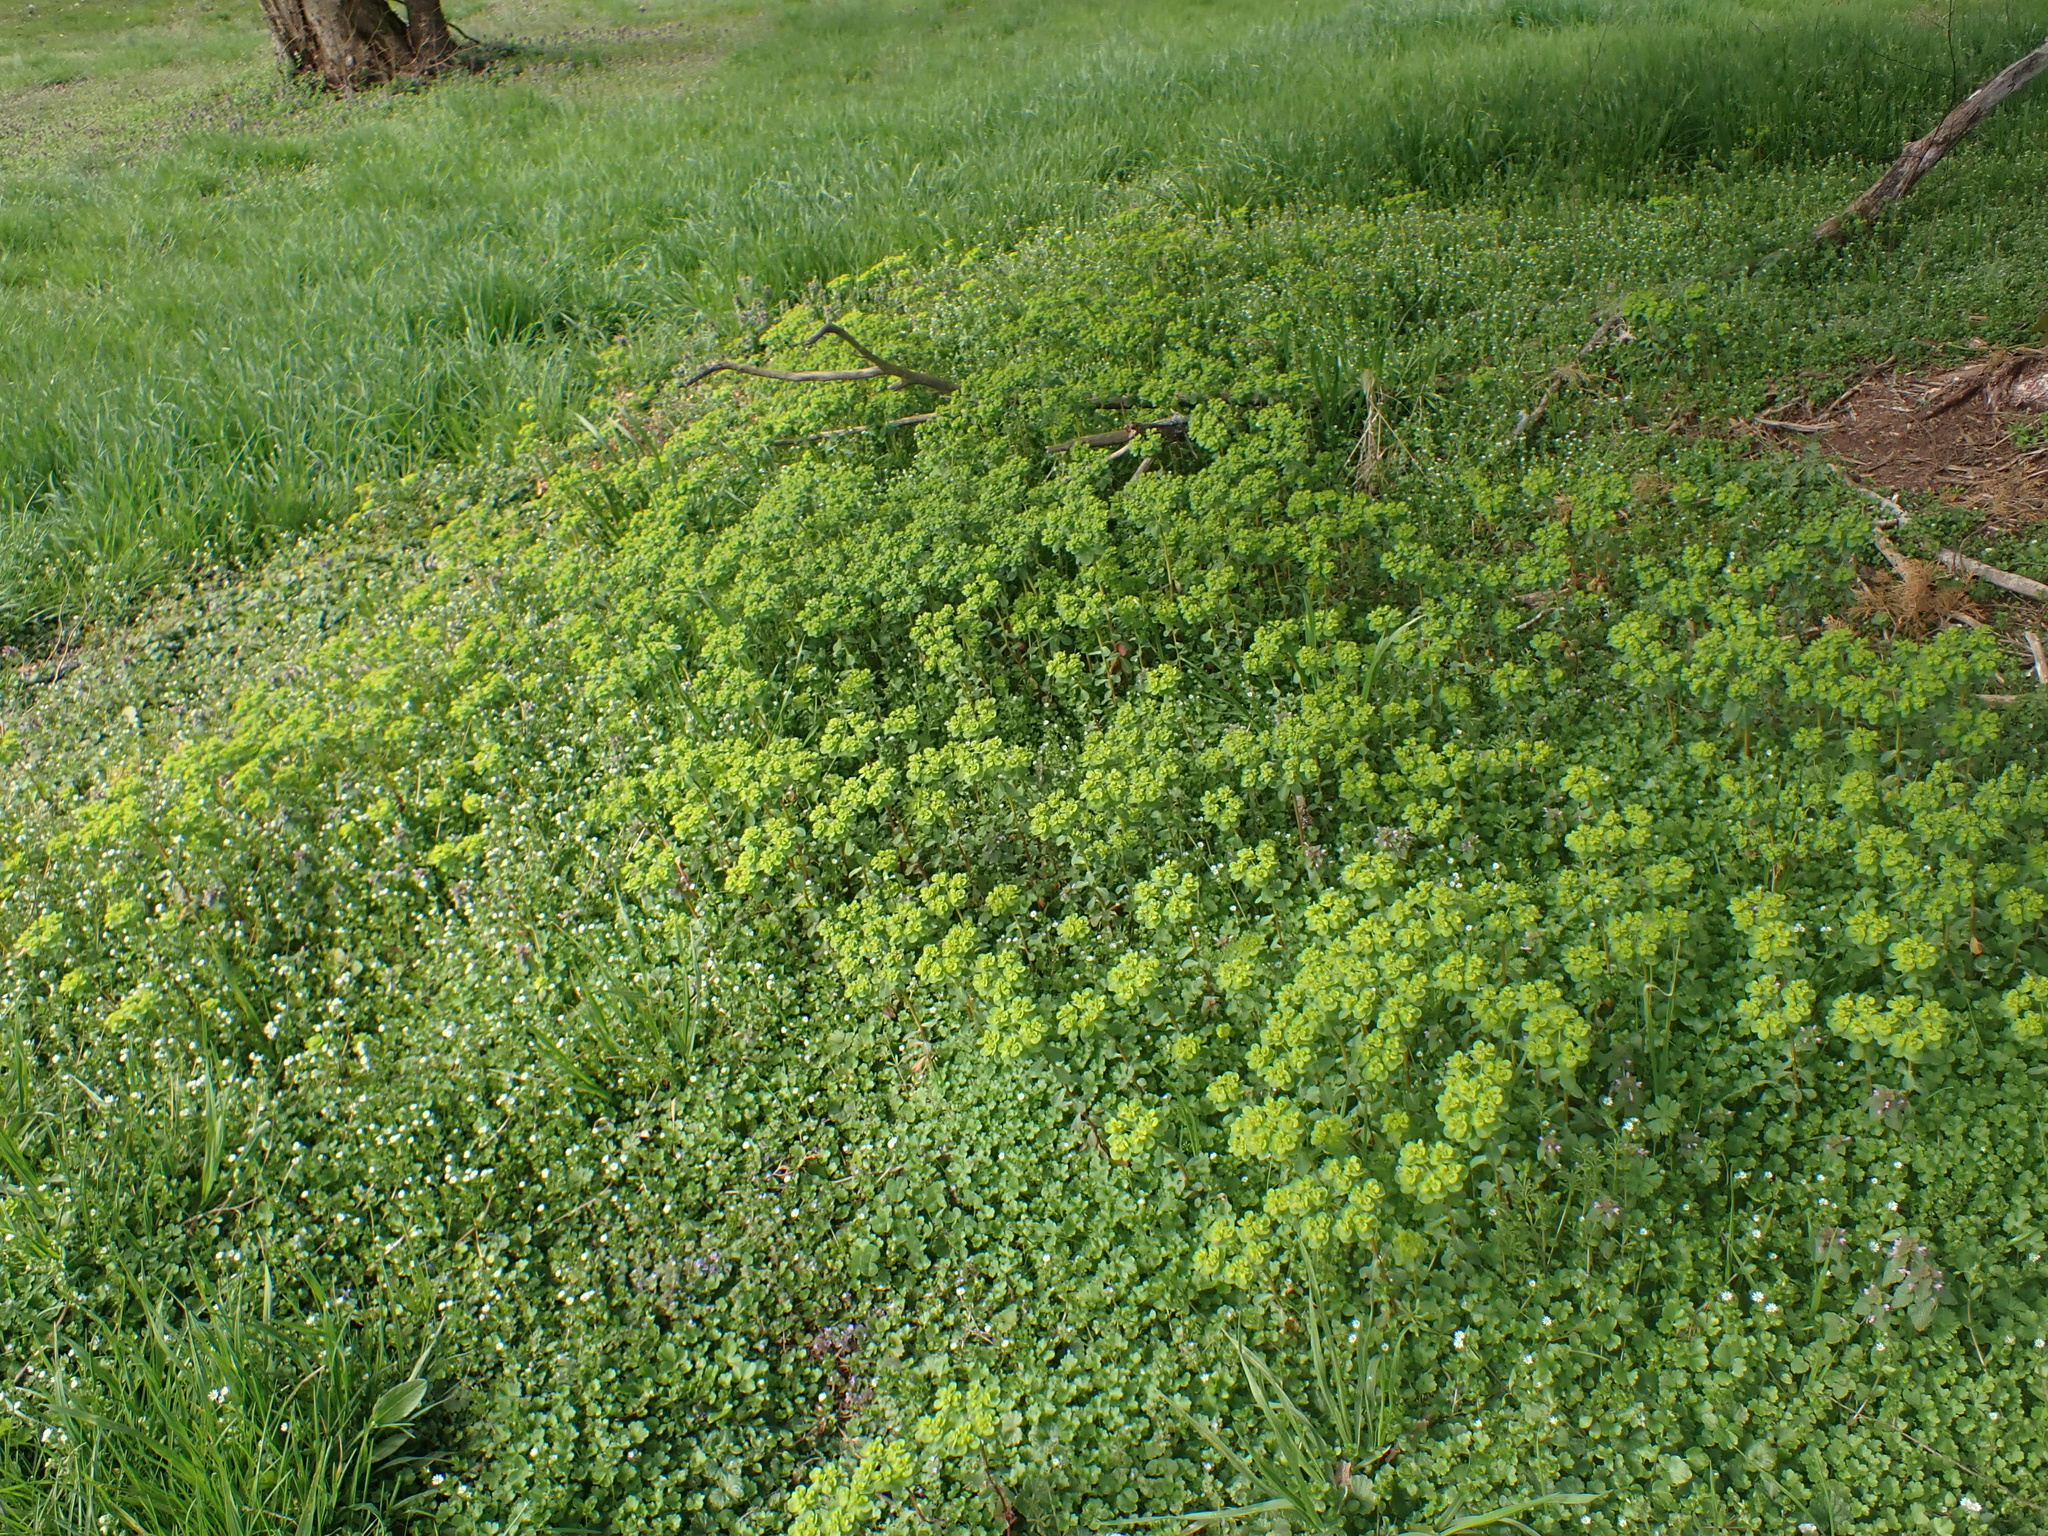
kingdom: Plantae
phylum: Tracheophyta
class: Magnoliopsida
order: Malpighiales
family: Euphorbiaceae
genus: Euphorbia
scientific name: Euphorbia helioscopia
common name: Sun spurge
